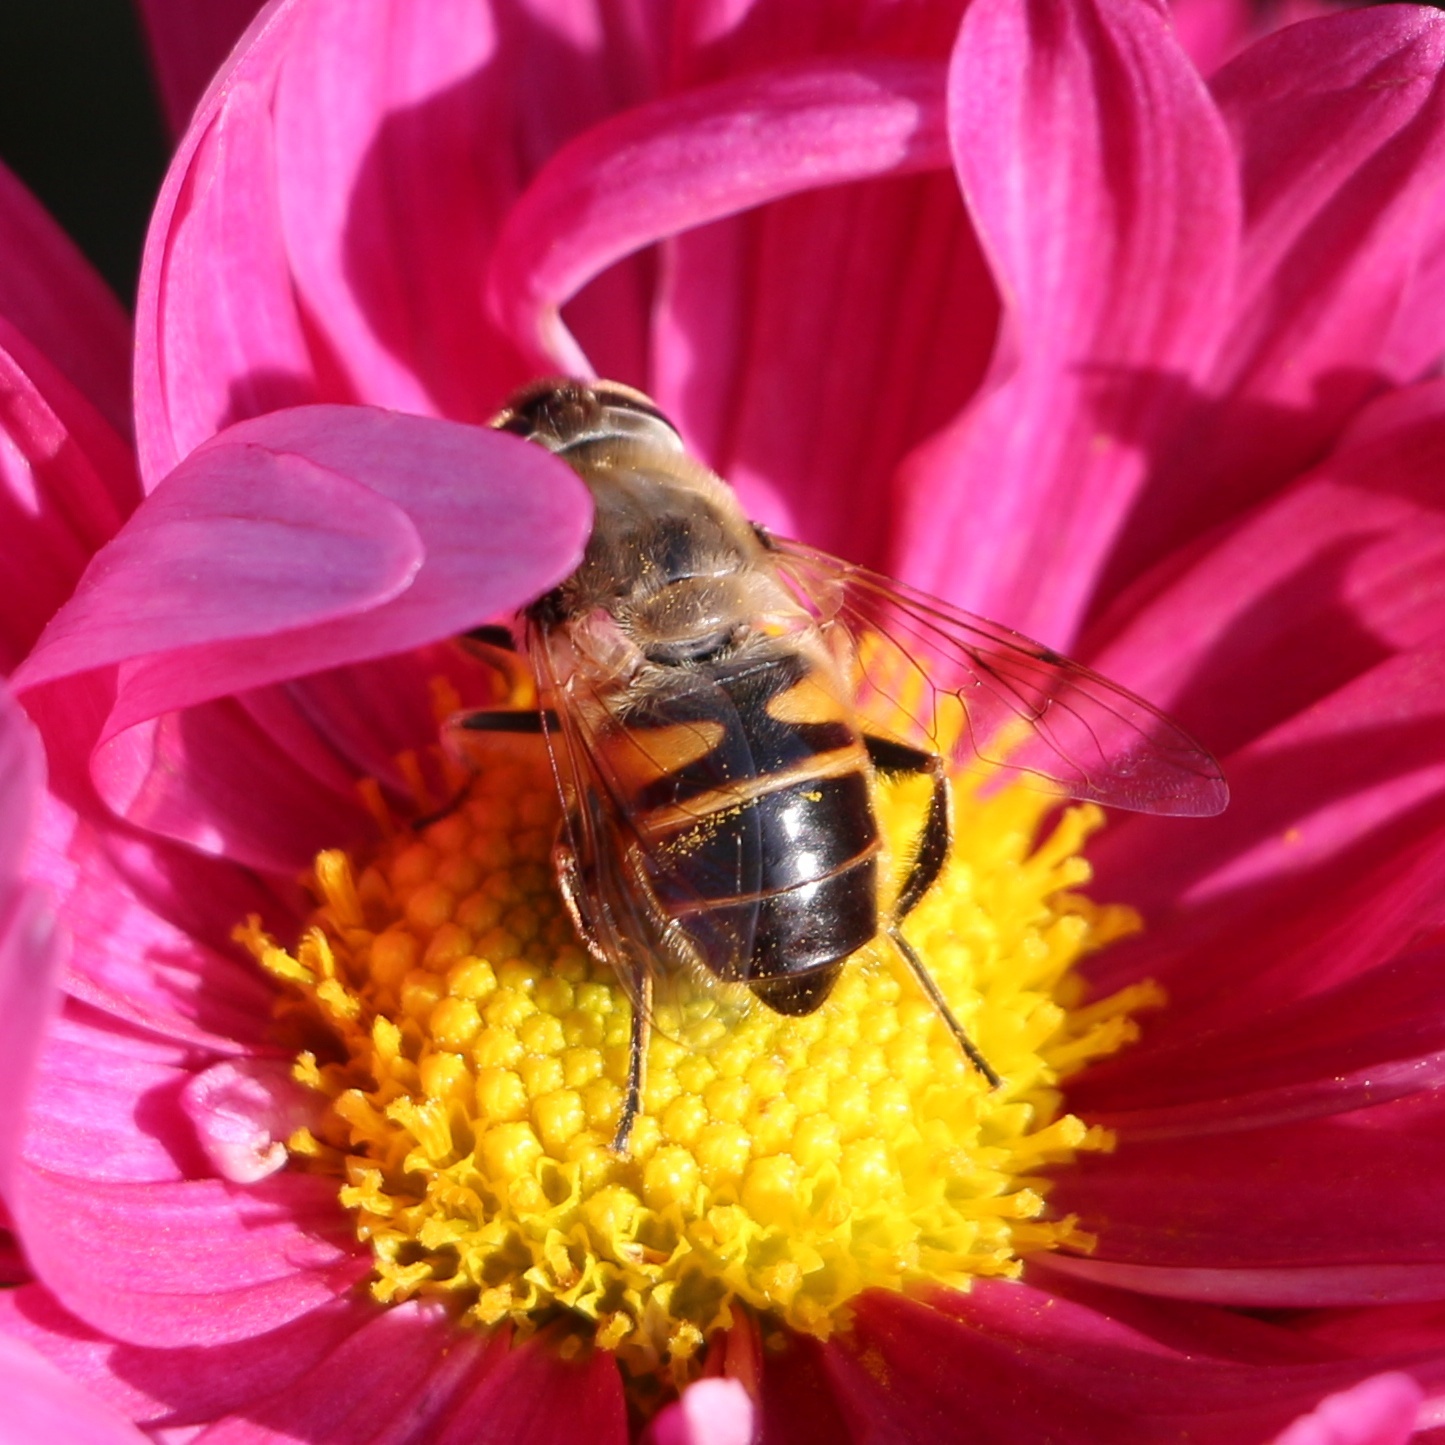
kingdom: Animalia
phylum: Arthropoda
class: Insecta
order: Diptera
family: Syrphidae
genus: Eristalis
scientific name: Eristalis tenax
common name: Drone fly
